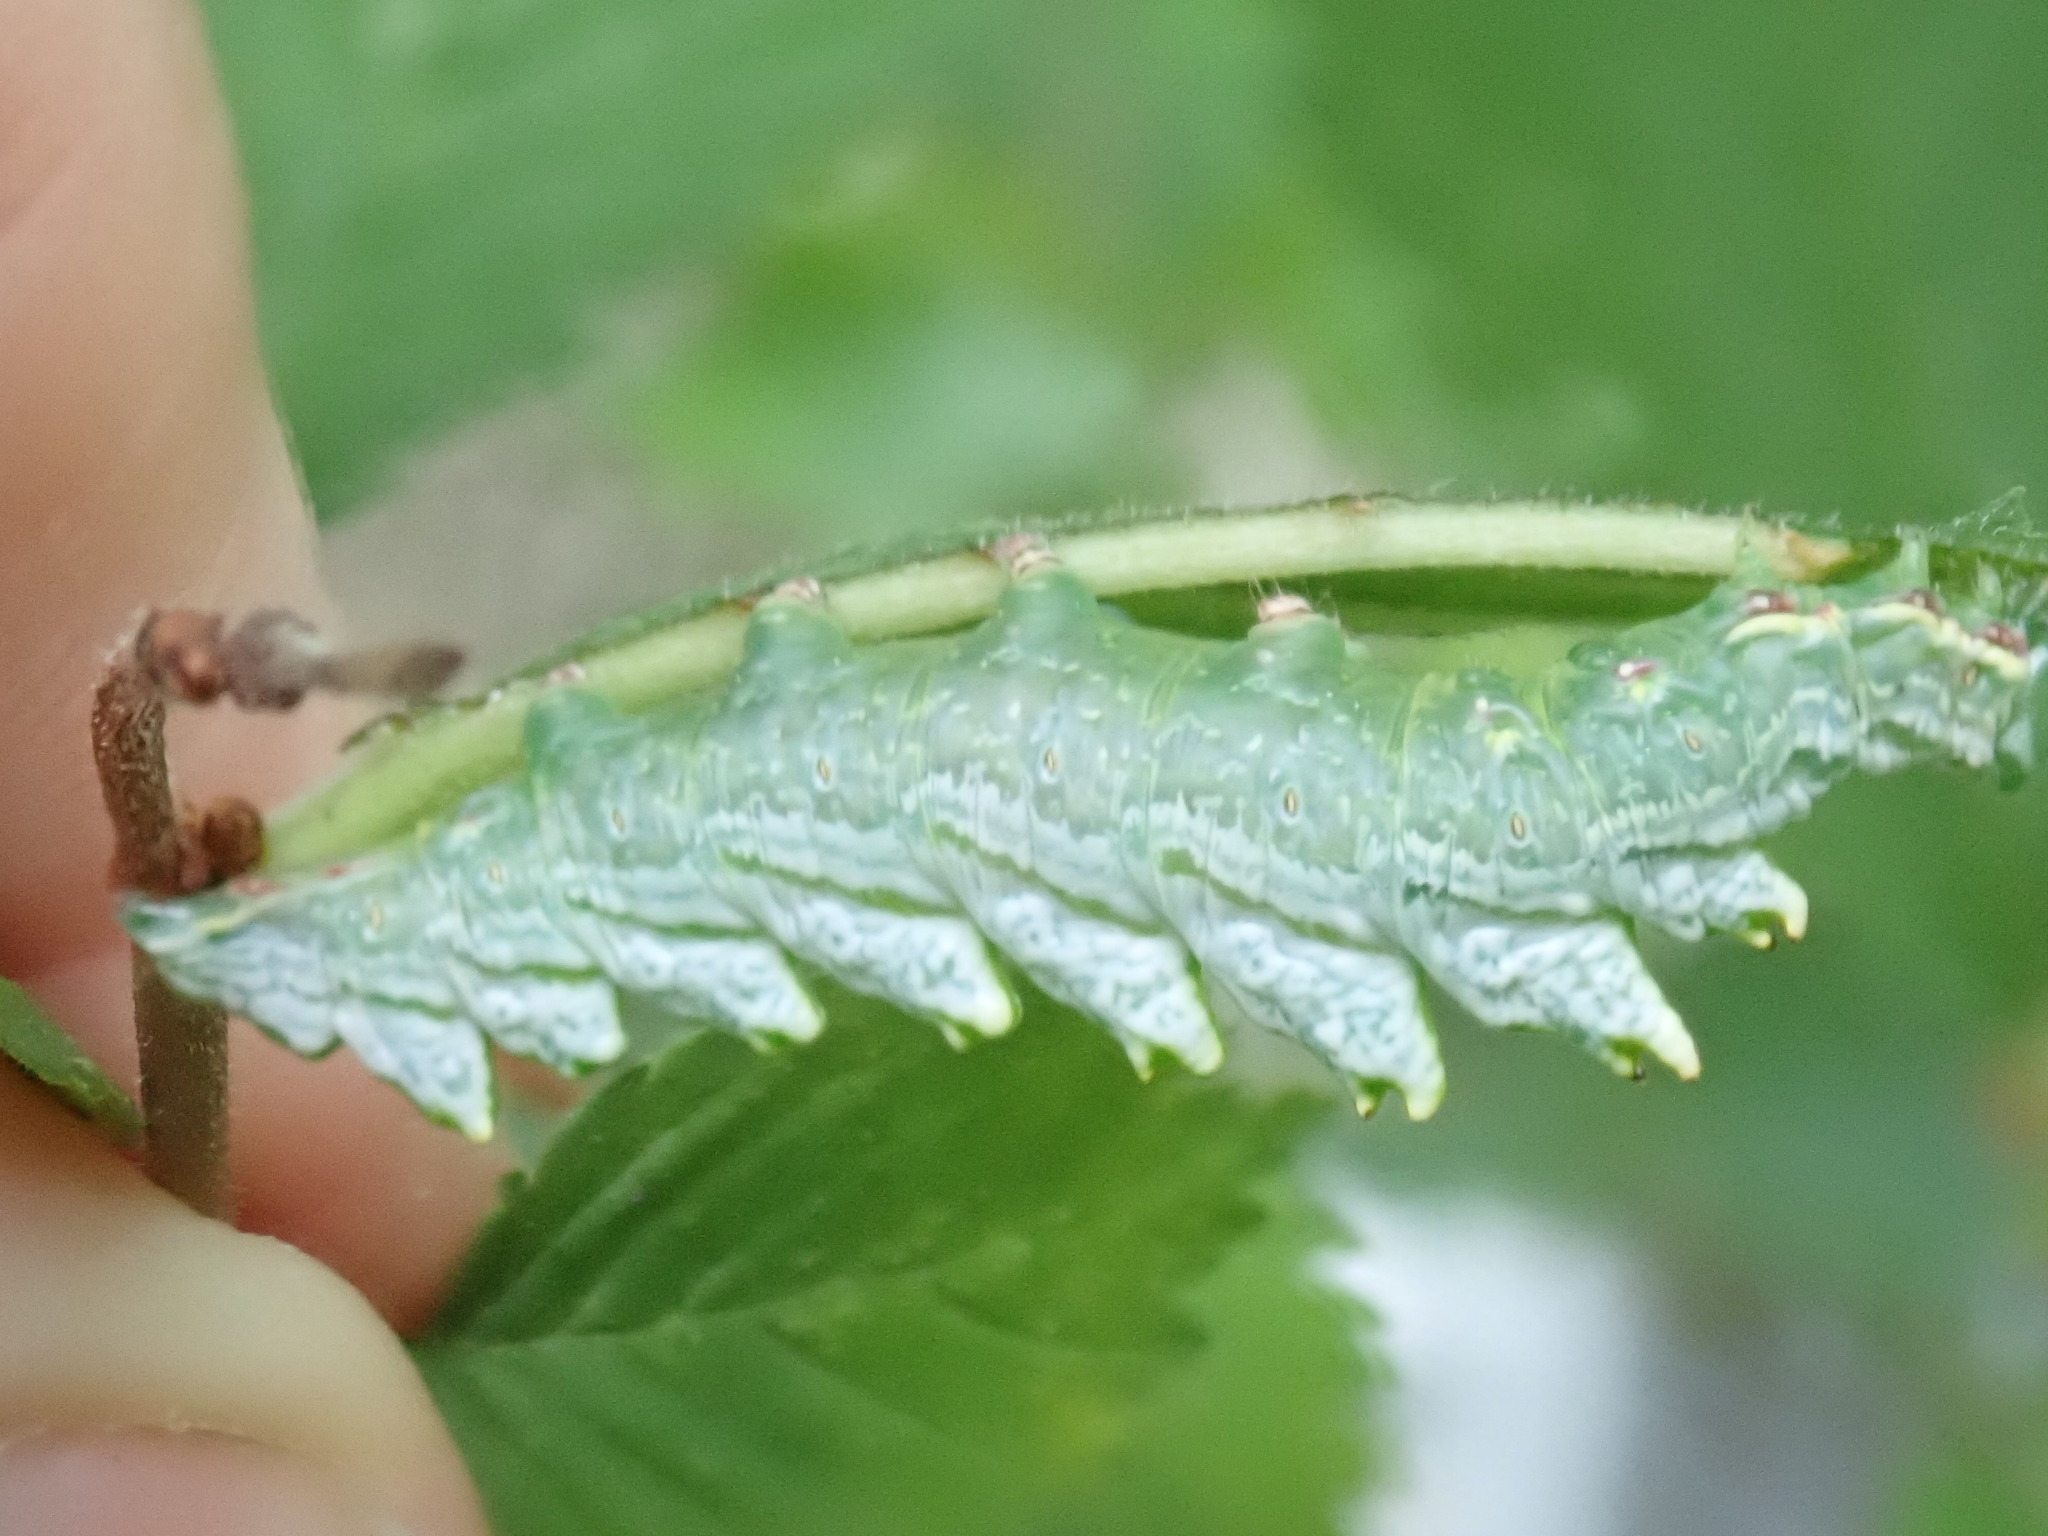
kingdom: Animalia
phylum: Arthropoda
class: Insecta
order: Lepidoptera
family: Notodontidae
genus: Nerice
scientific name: Nerice bidentata
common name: Double-toothed prominent
